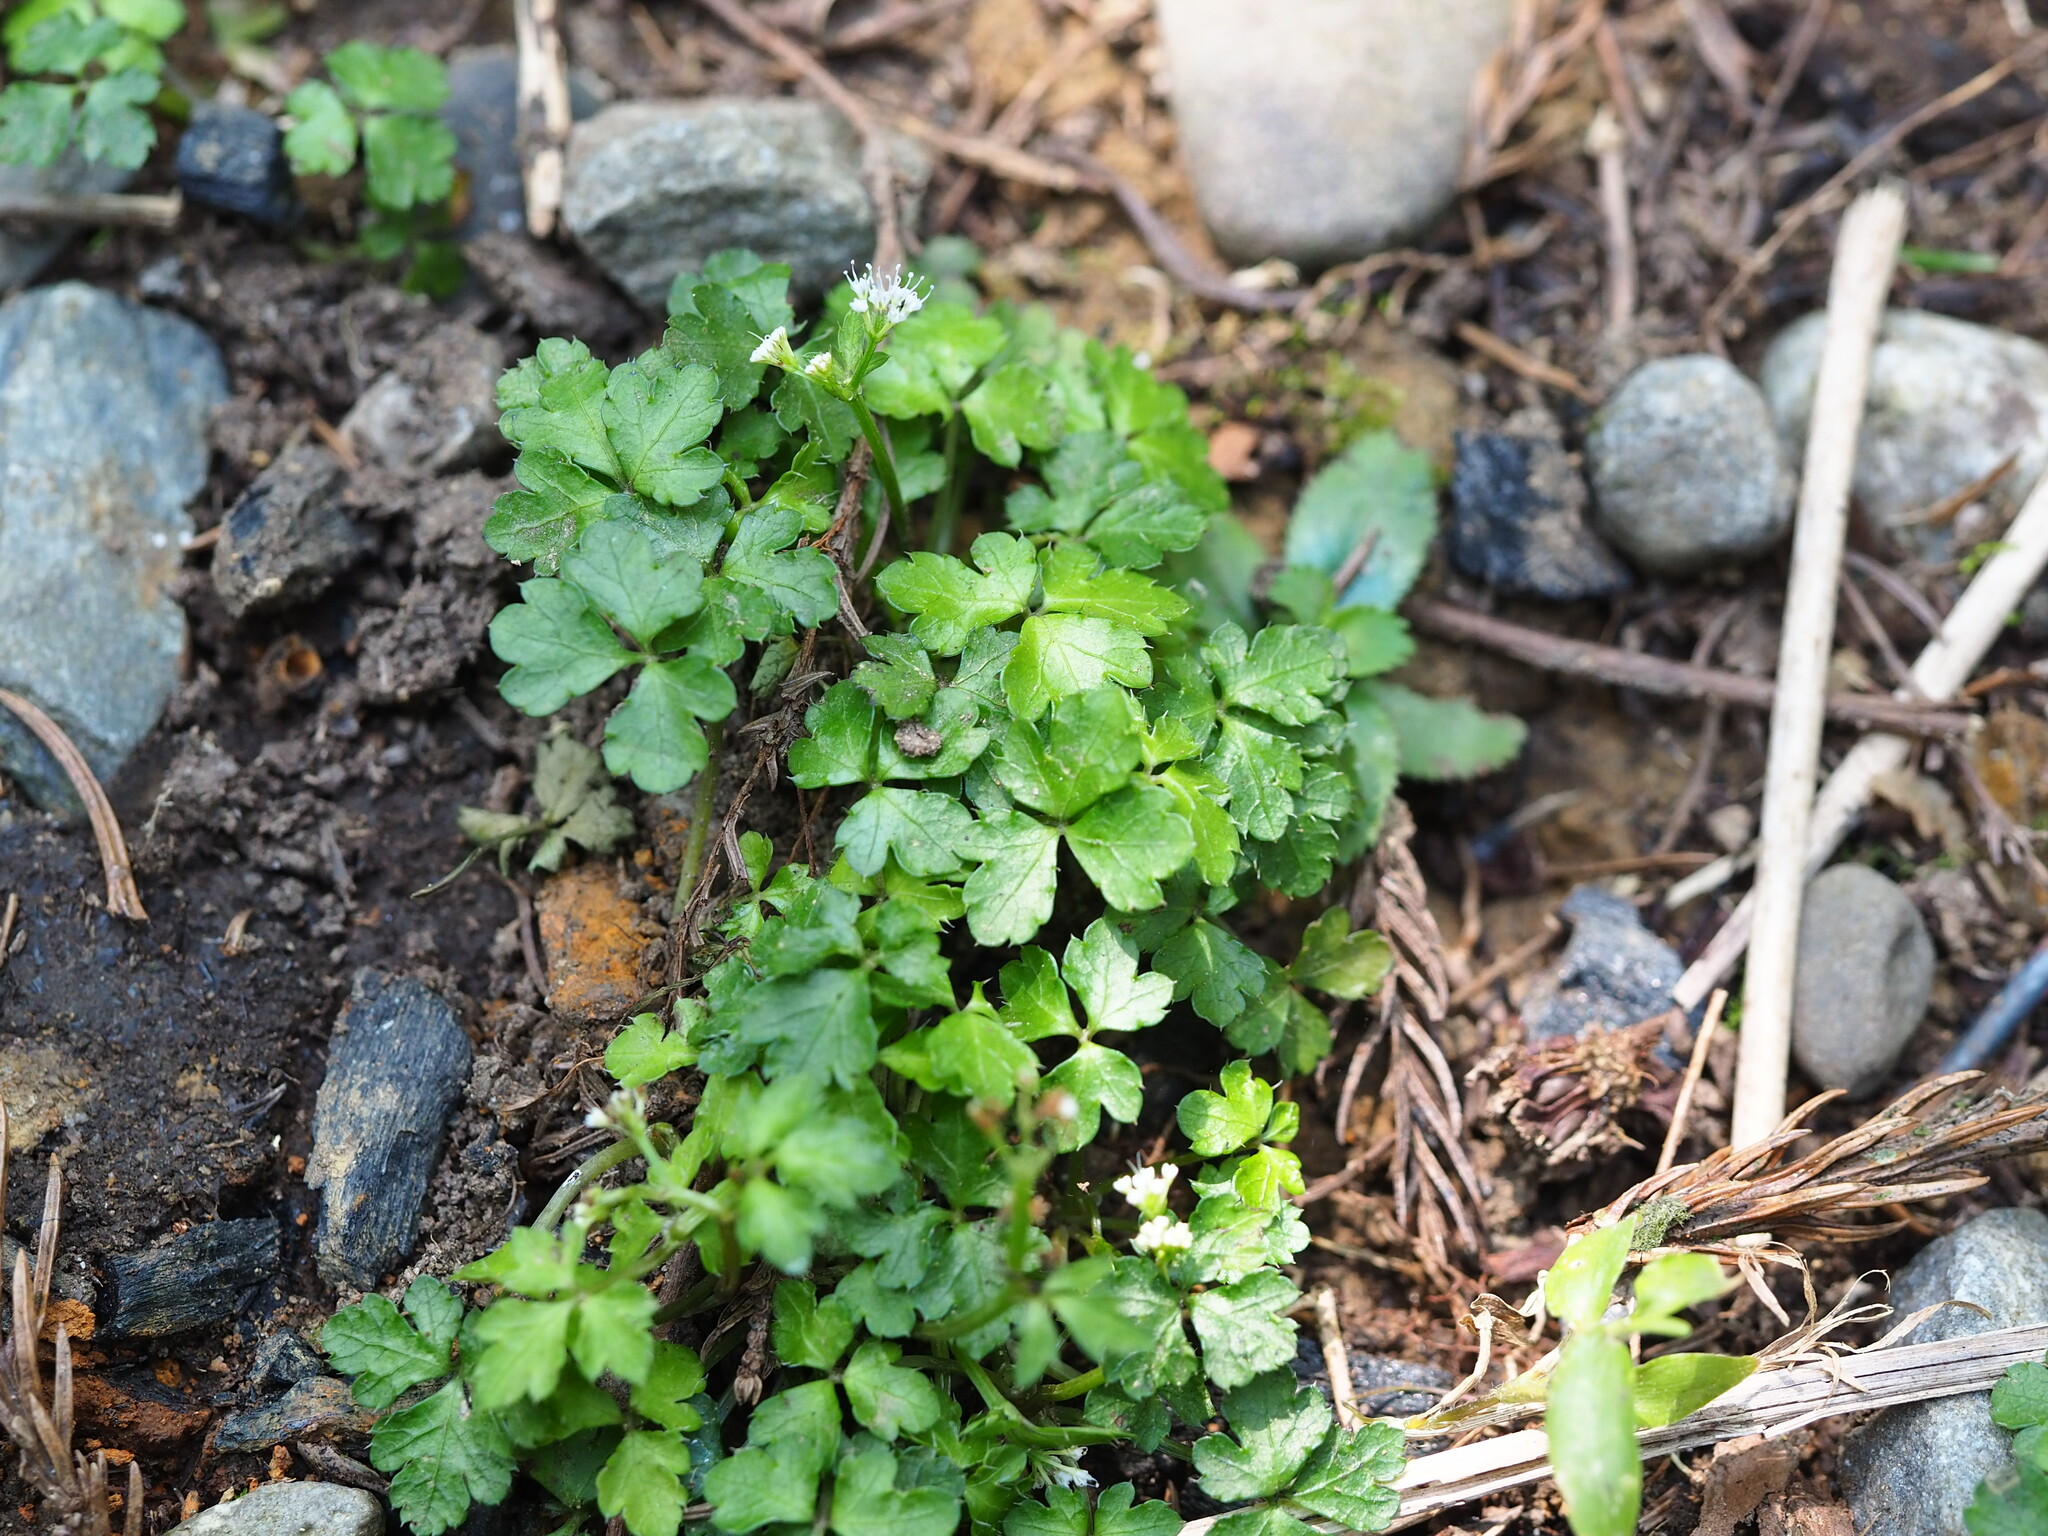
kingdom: Plantae
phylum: Tracheophyta
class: Magnoliopsida
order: Apiales
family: Apiaceae
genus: Sanicula
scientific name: Sanicula lamelligera
